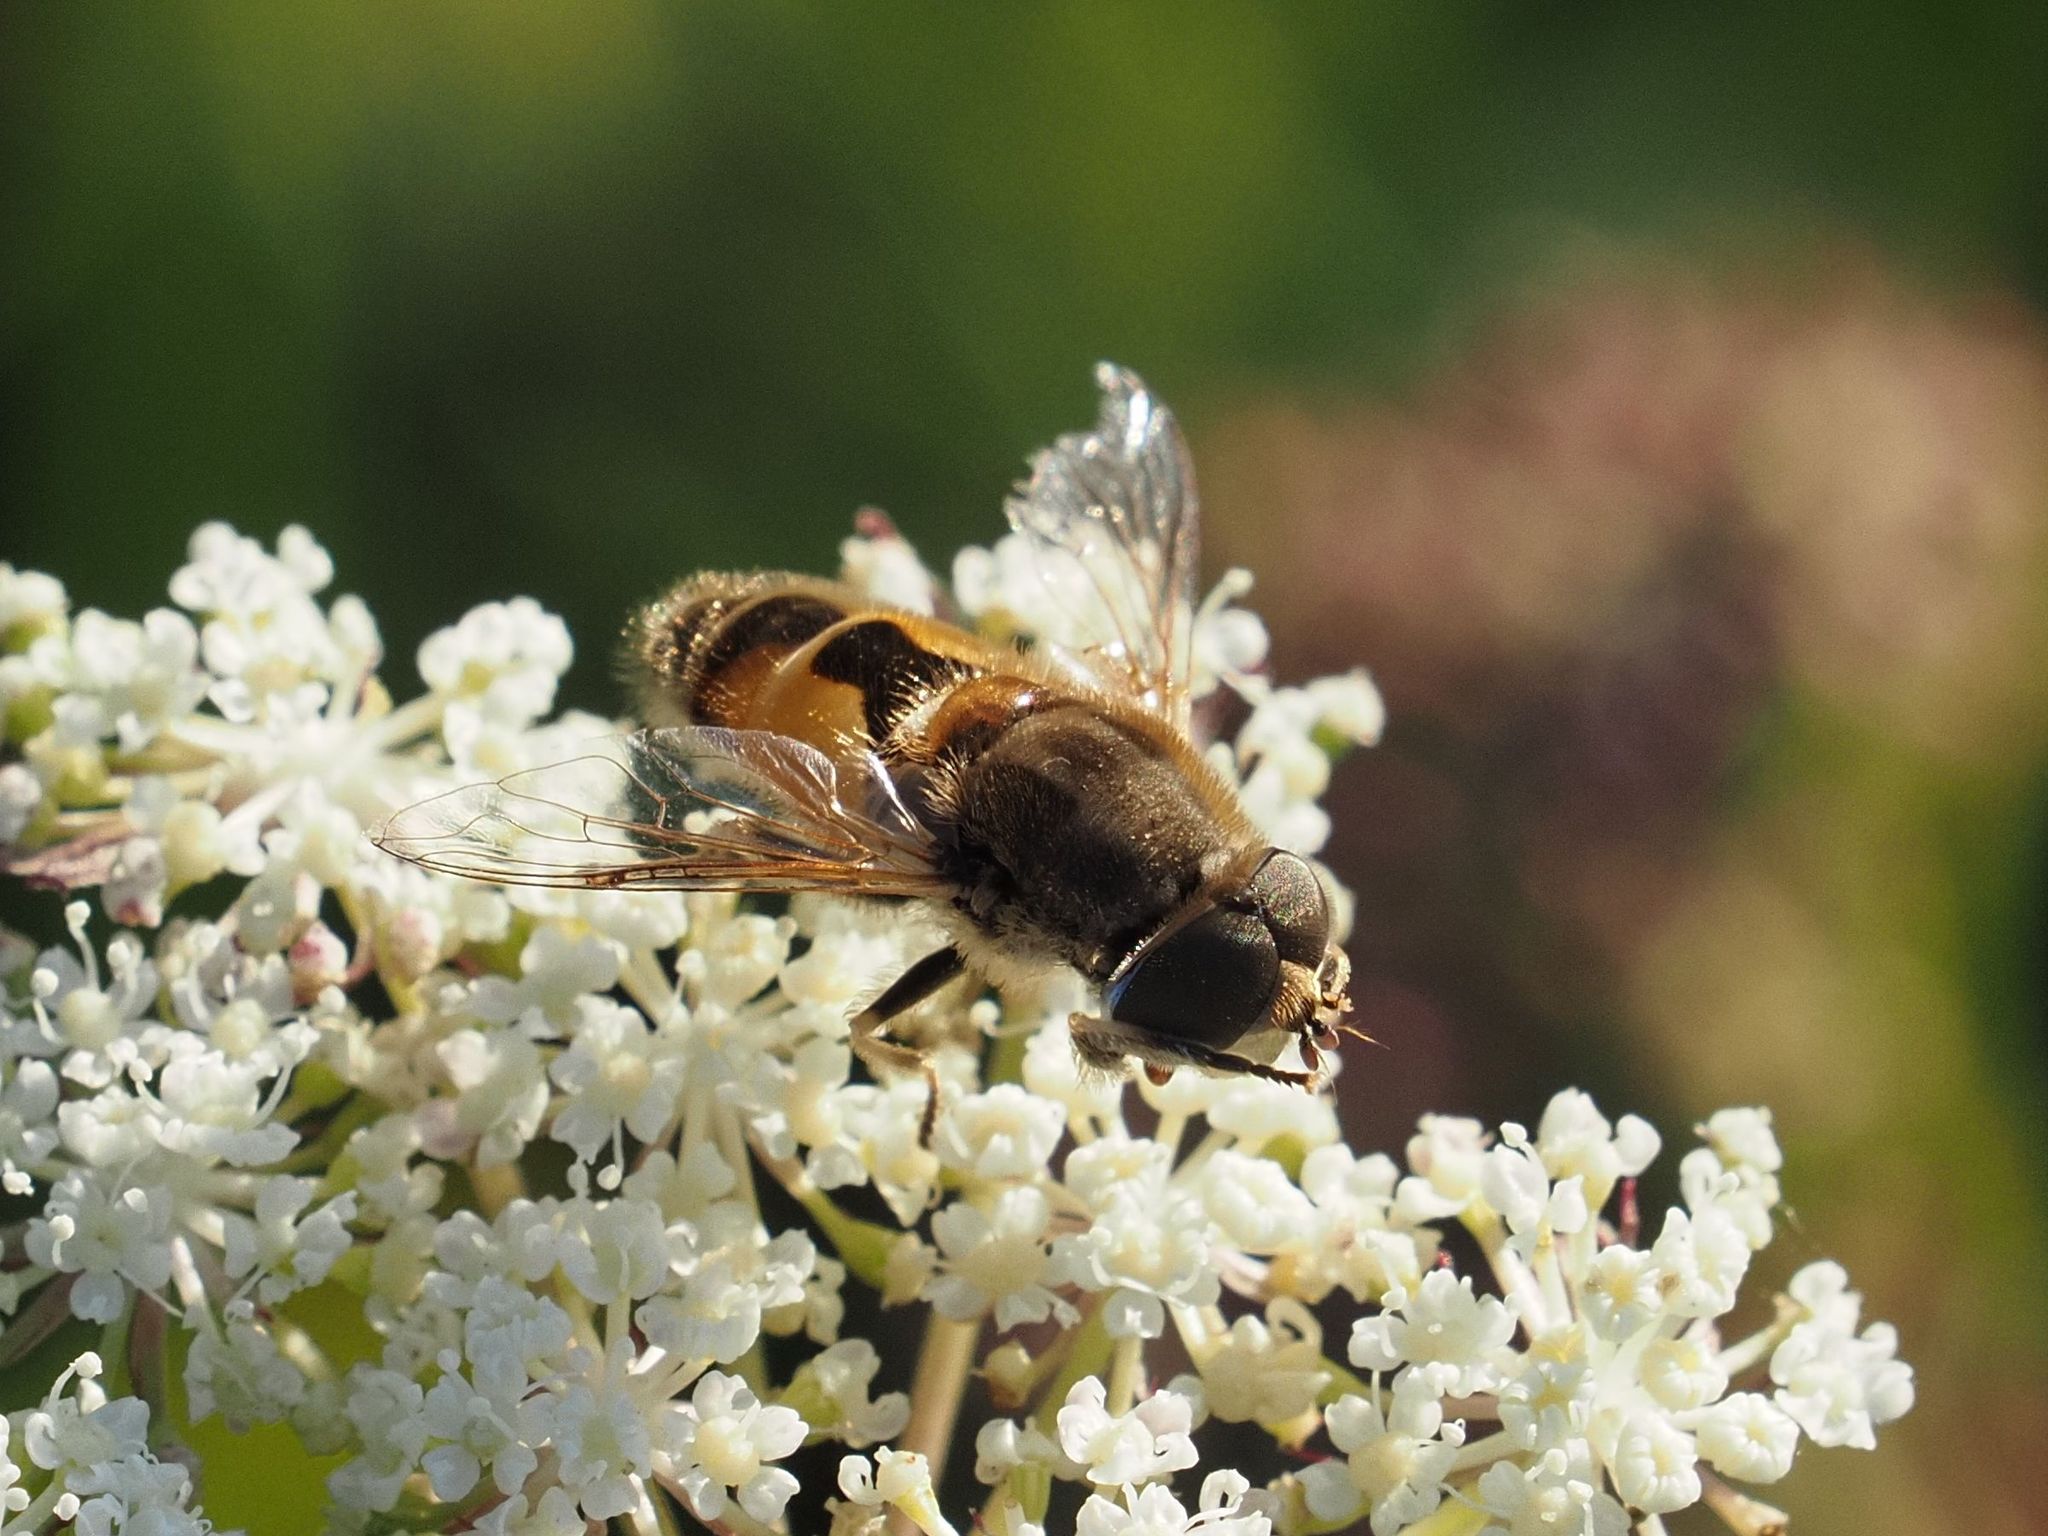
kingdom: Animalia
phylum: Arthropoda
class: Insecta
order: Diptera
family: Syrphidae
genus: Eristalis
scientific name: Eristalis arbustorum
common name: Hover fly
